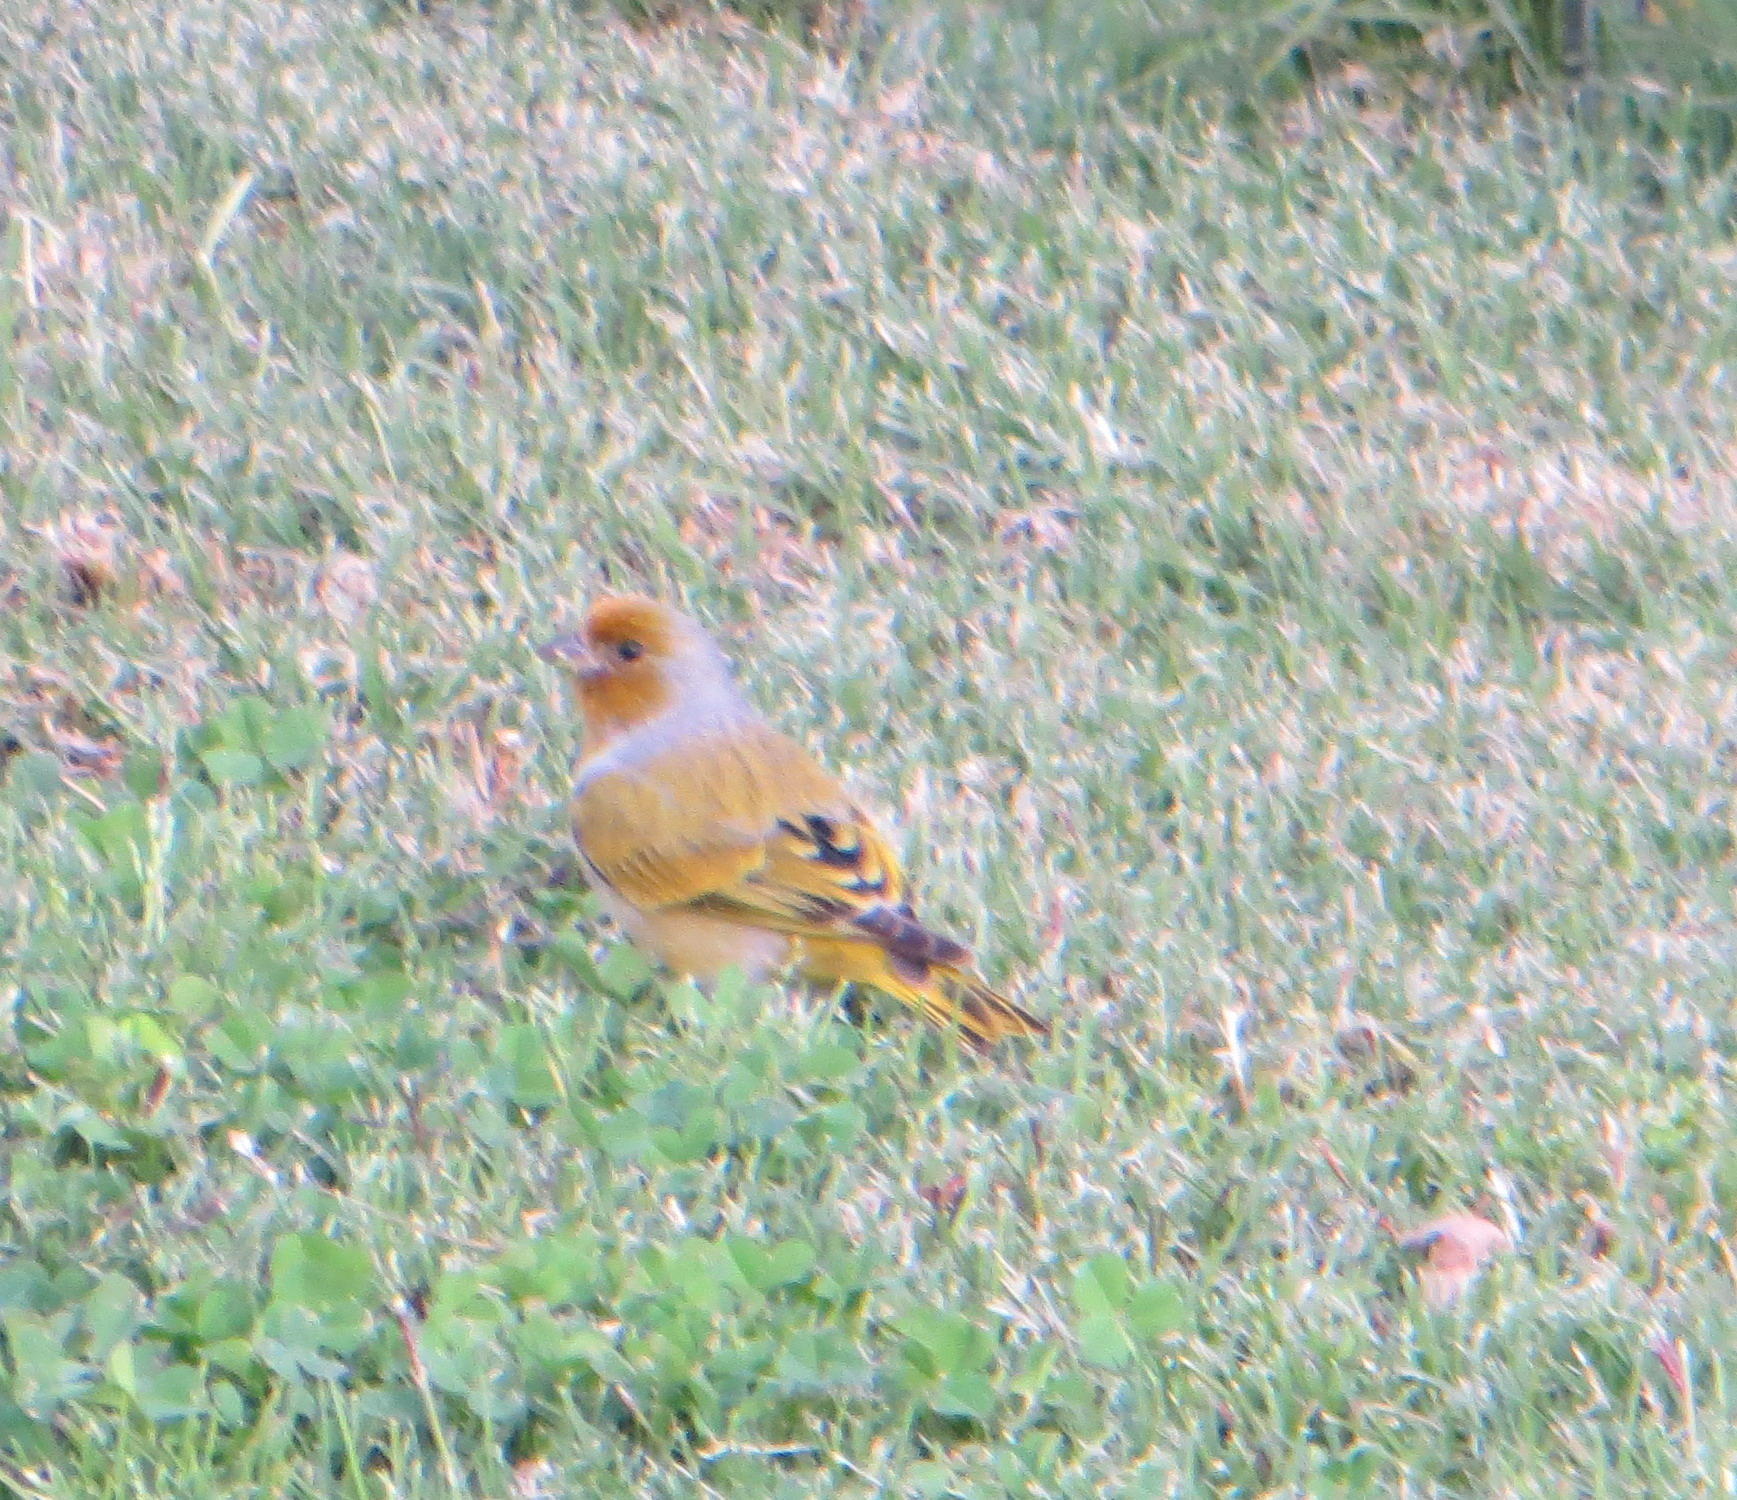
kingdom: Animalia
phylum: Chordata
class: Aves
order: Passeriformes
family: Fringillidae
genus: Serinus
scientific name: Serinus canicollis
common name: Cape canary
